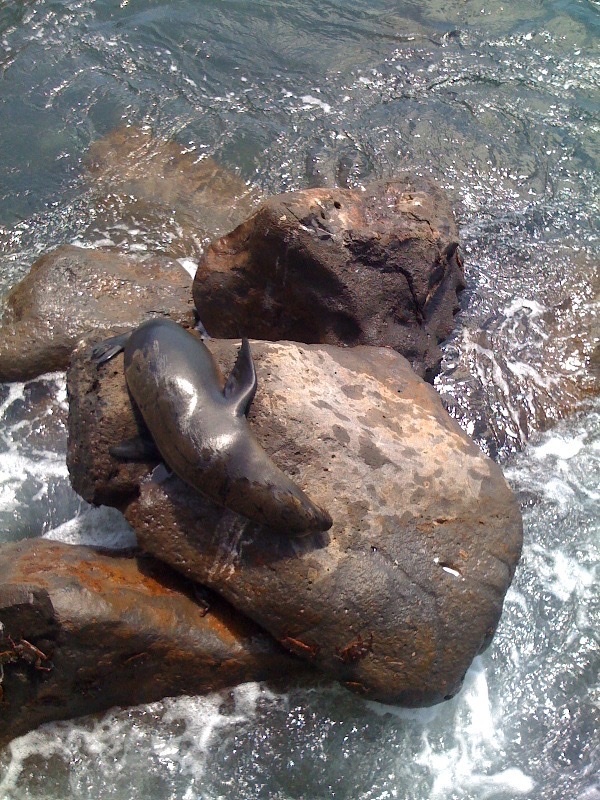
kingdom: Animalia
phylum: Chordata
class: Mammalia
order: Carnivora
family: Otariidae
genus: Zalophus
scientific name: Zalophus wollebaeki
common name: Galapagos sea lion
